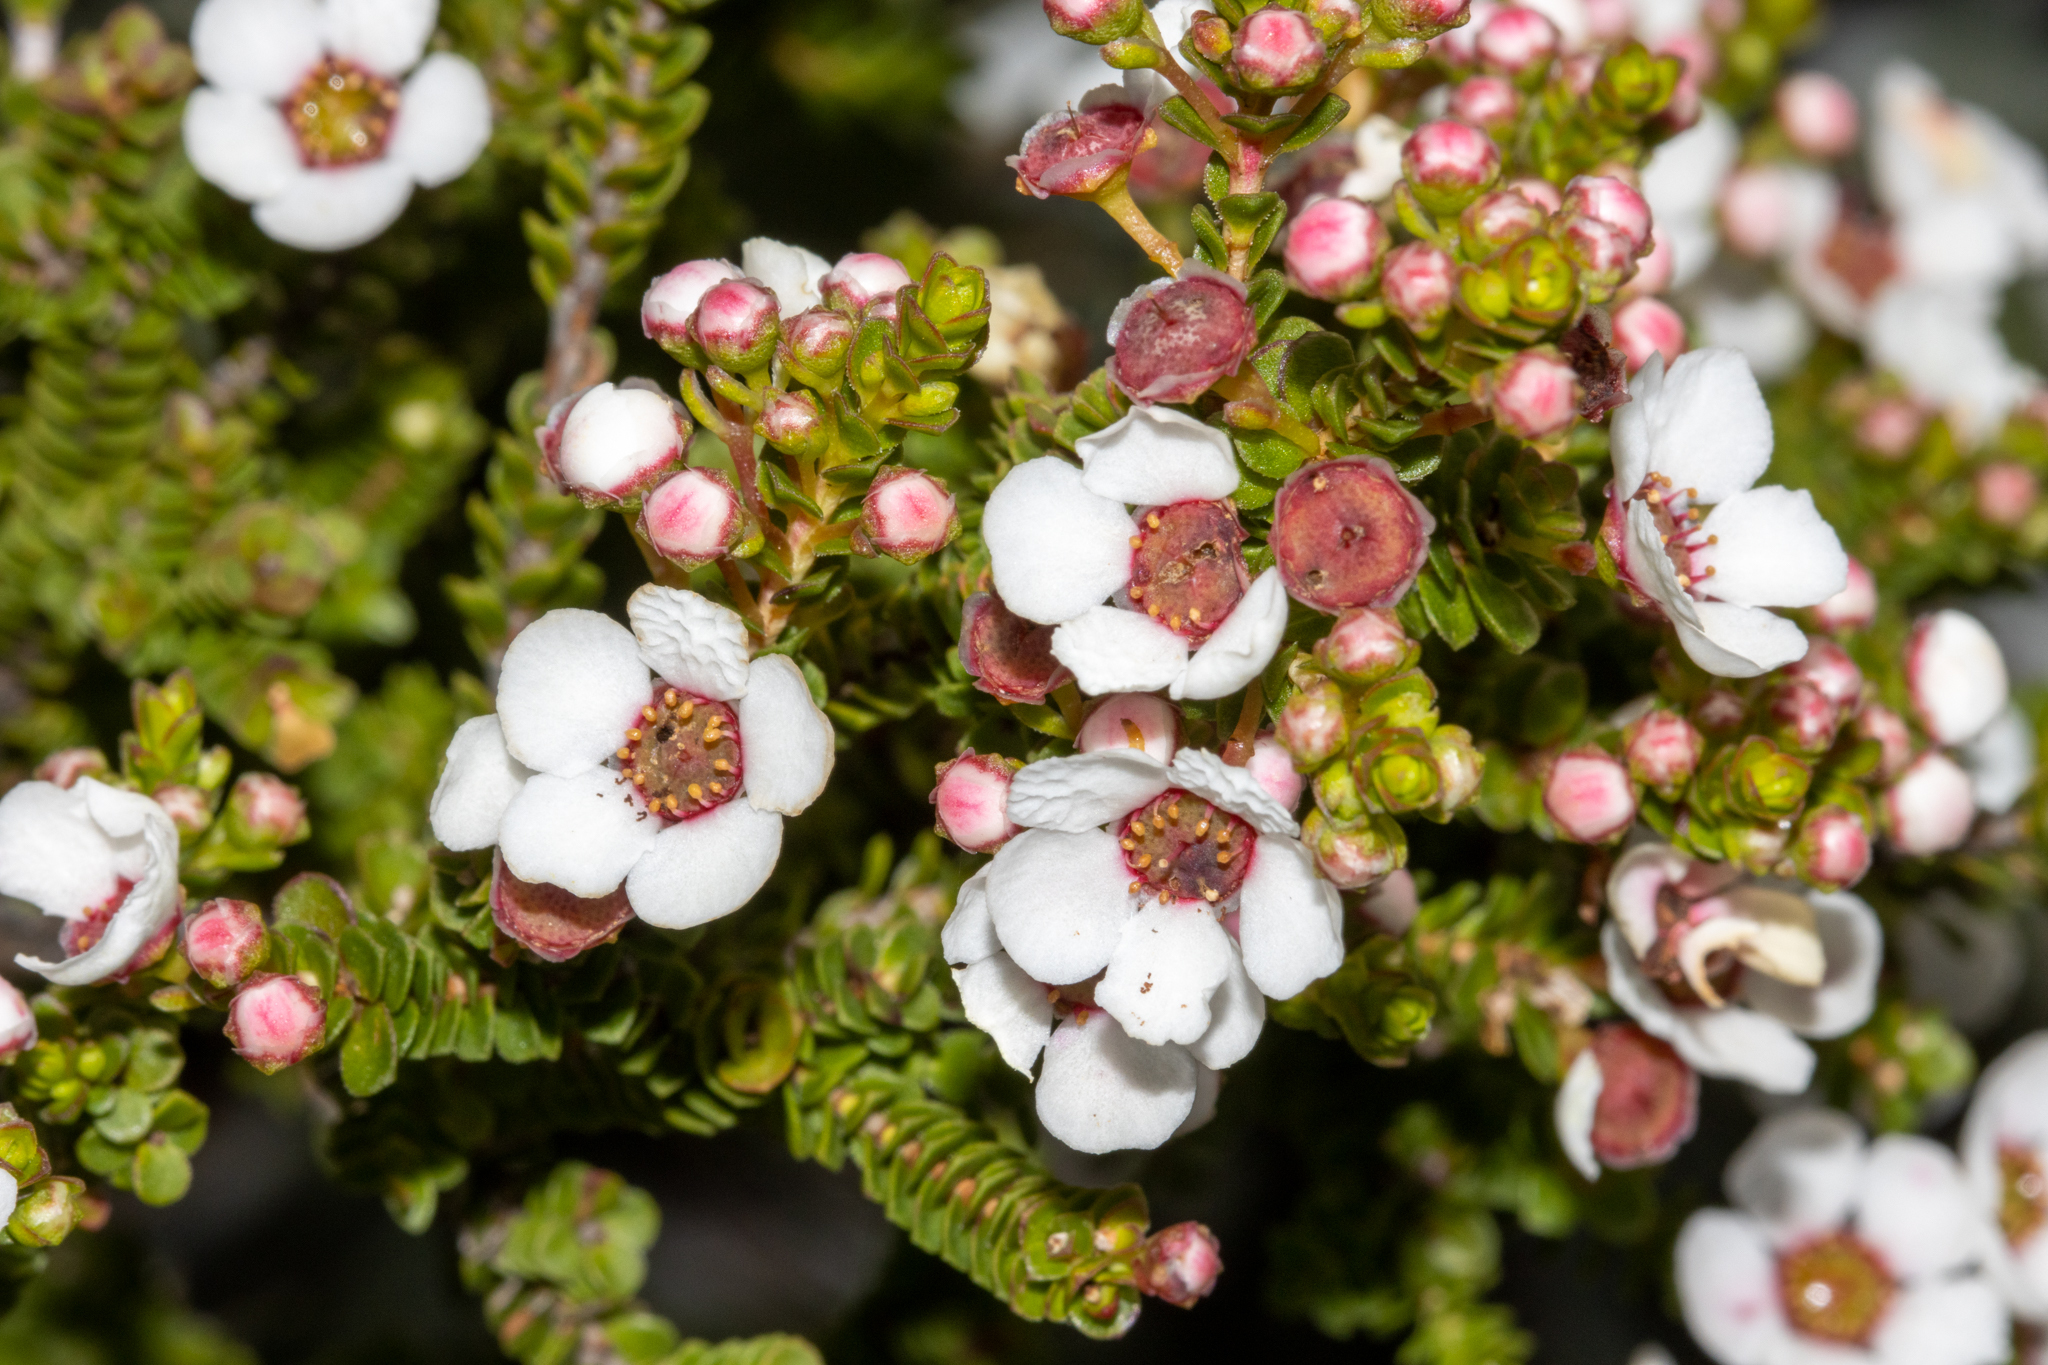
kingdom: Plantae
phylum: Tracheophyta
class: Magnoliopsida
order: Myrtales
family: Myrtaceae
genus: Anticoryne
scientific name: Anticoryne ovalifolia
